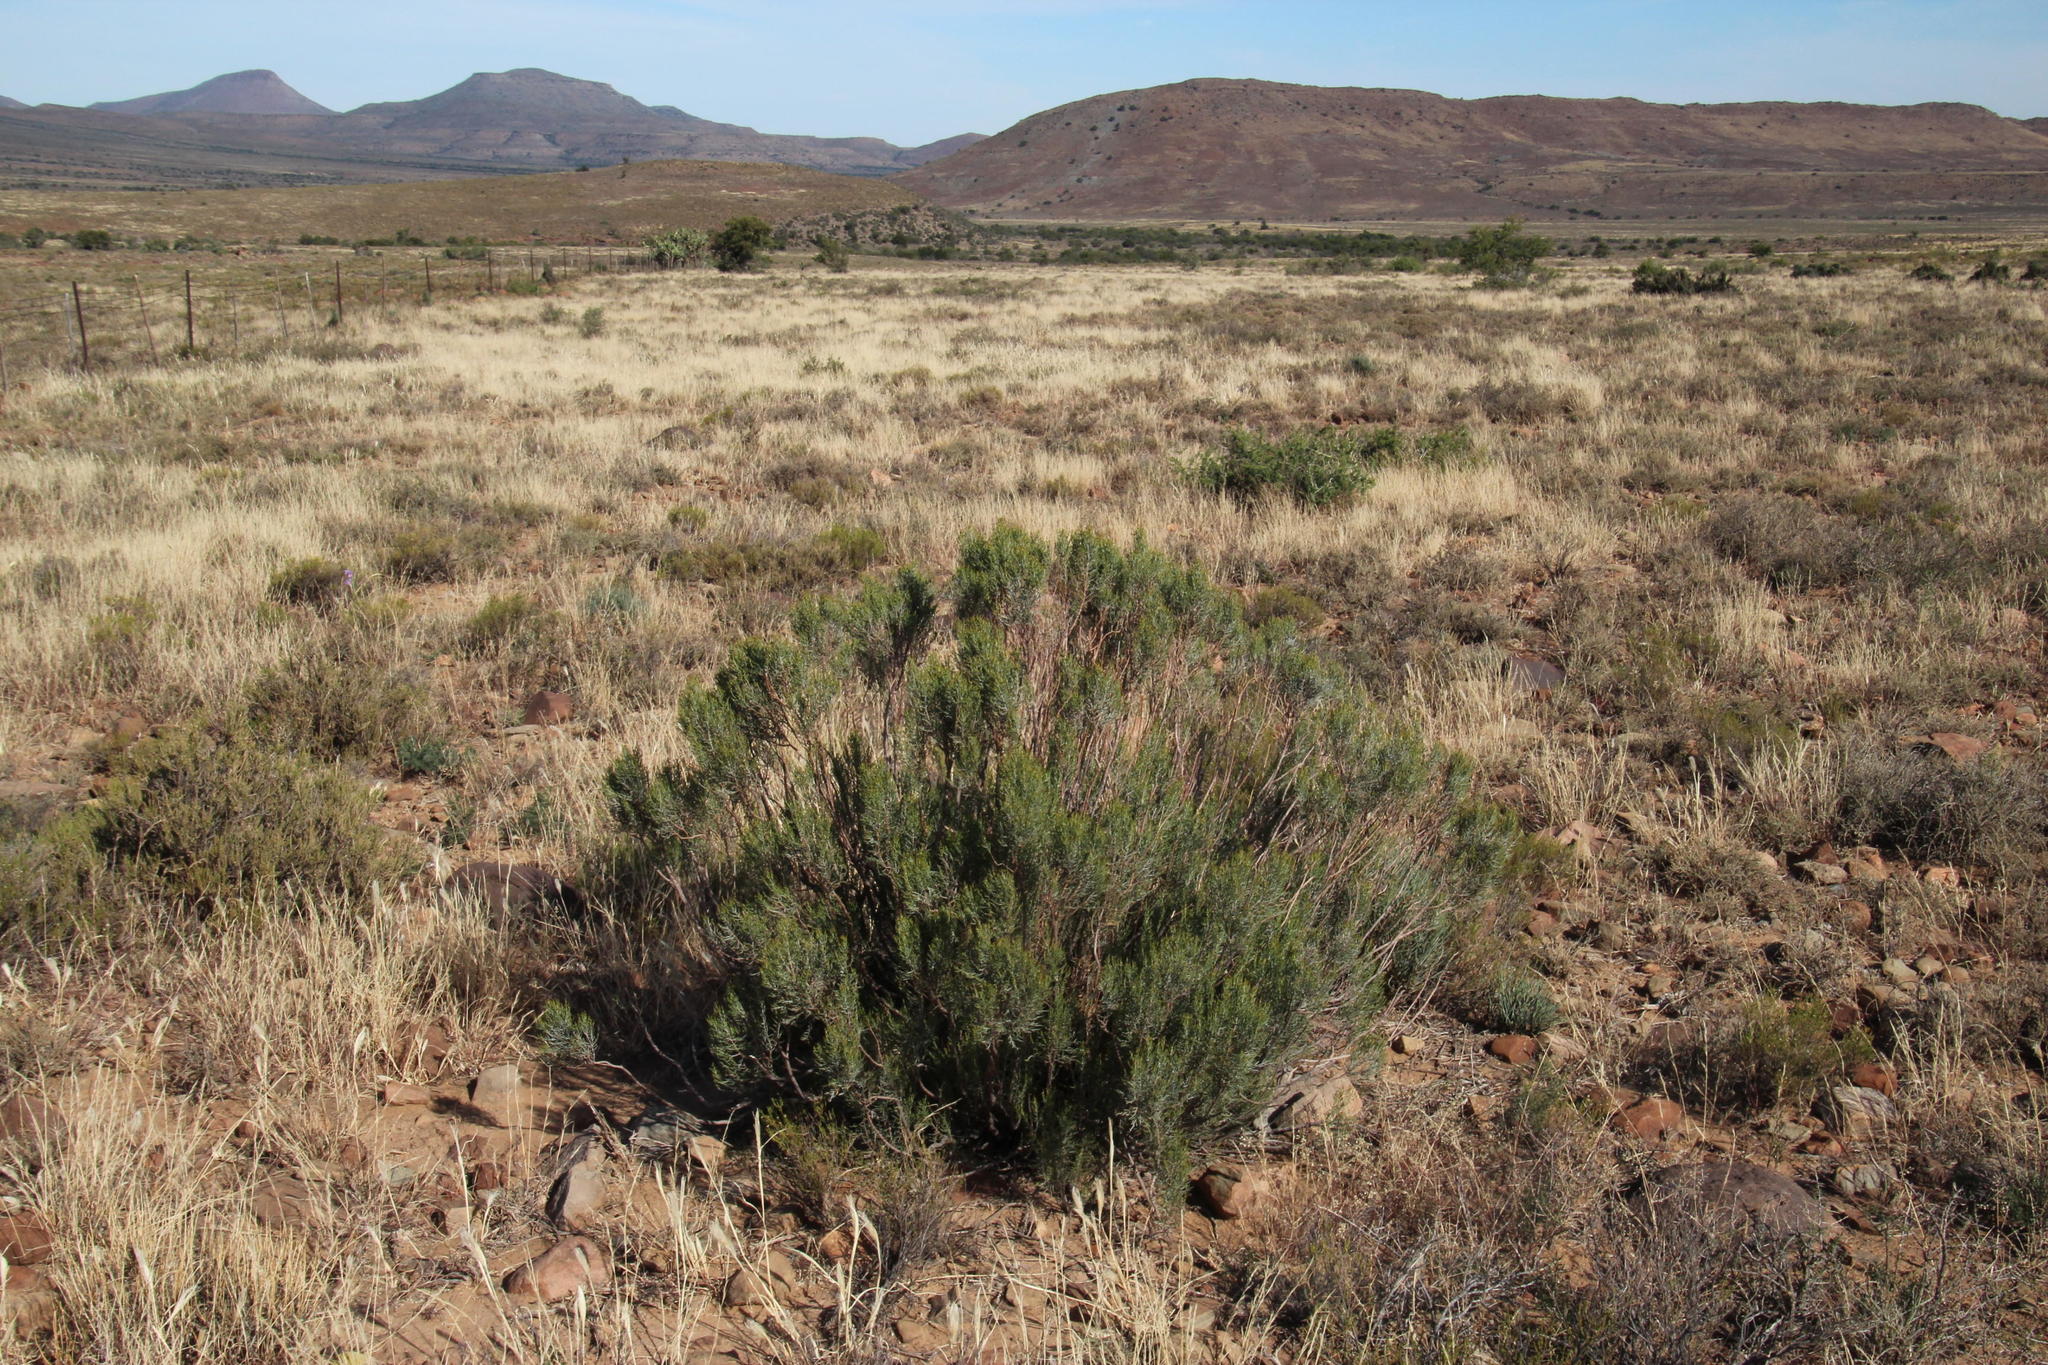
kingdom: Plantae
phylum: Tracheophyta
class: Magnoliopsida
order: Asterales
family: Asteraceae
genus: Dicerothamnus
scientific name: Dicerothamnus rhinocerotis
